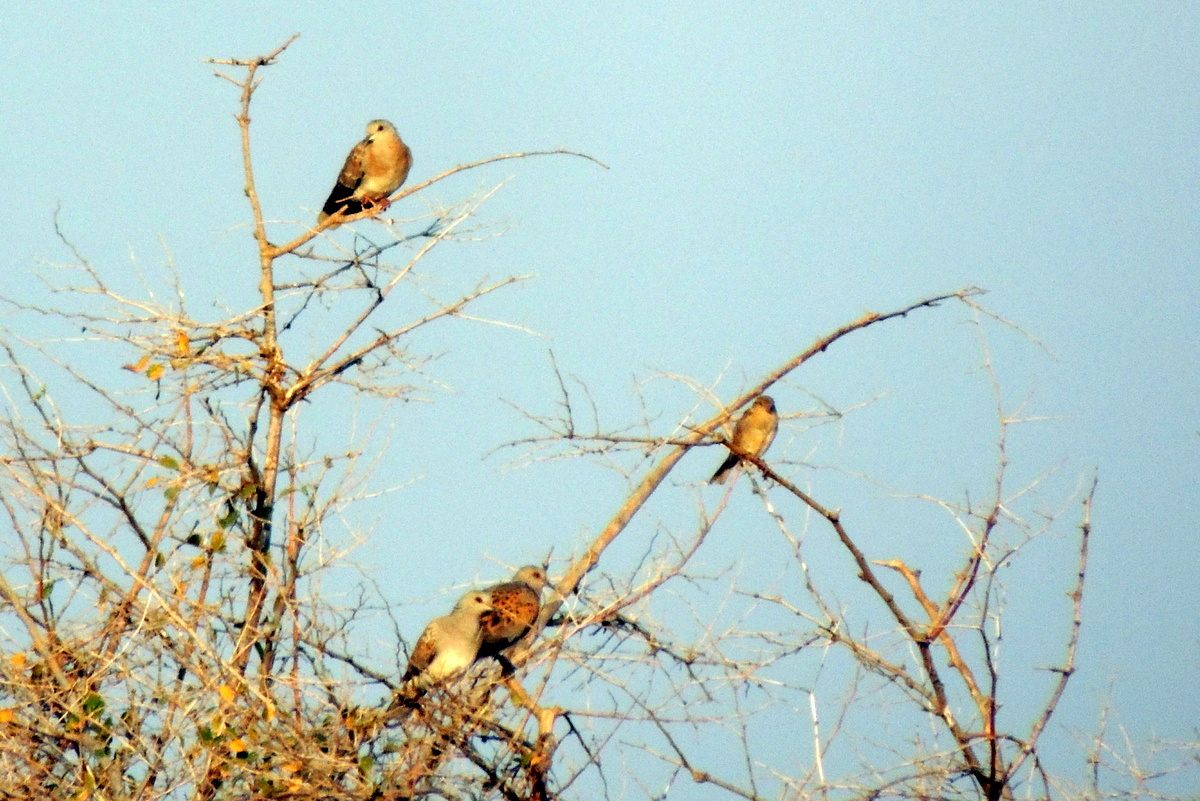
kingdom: Animalia
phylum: Chordata
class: Aves
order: Columbiformes
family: Columbidae
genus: Streptopelia
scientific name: Streptopelia turtur
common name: European turtle dove
